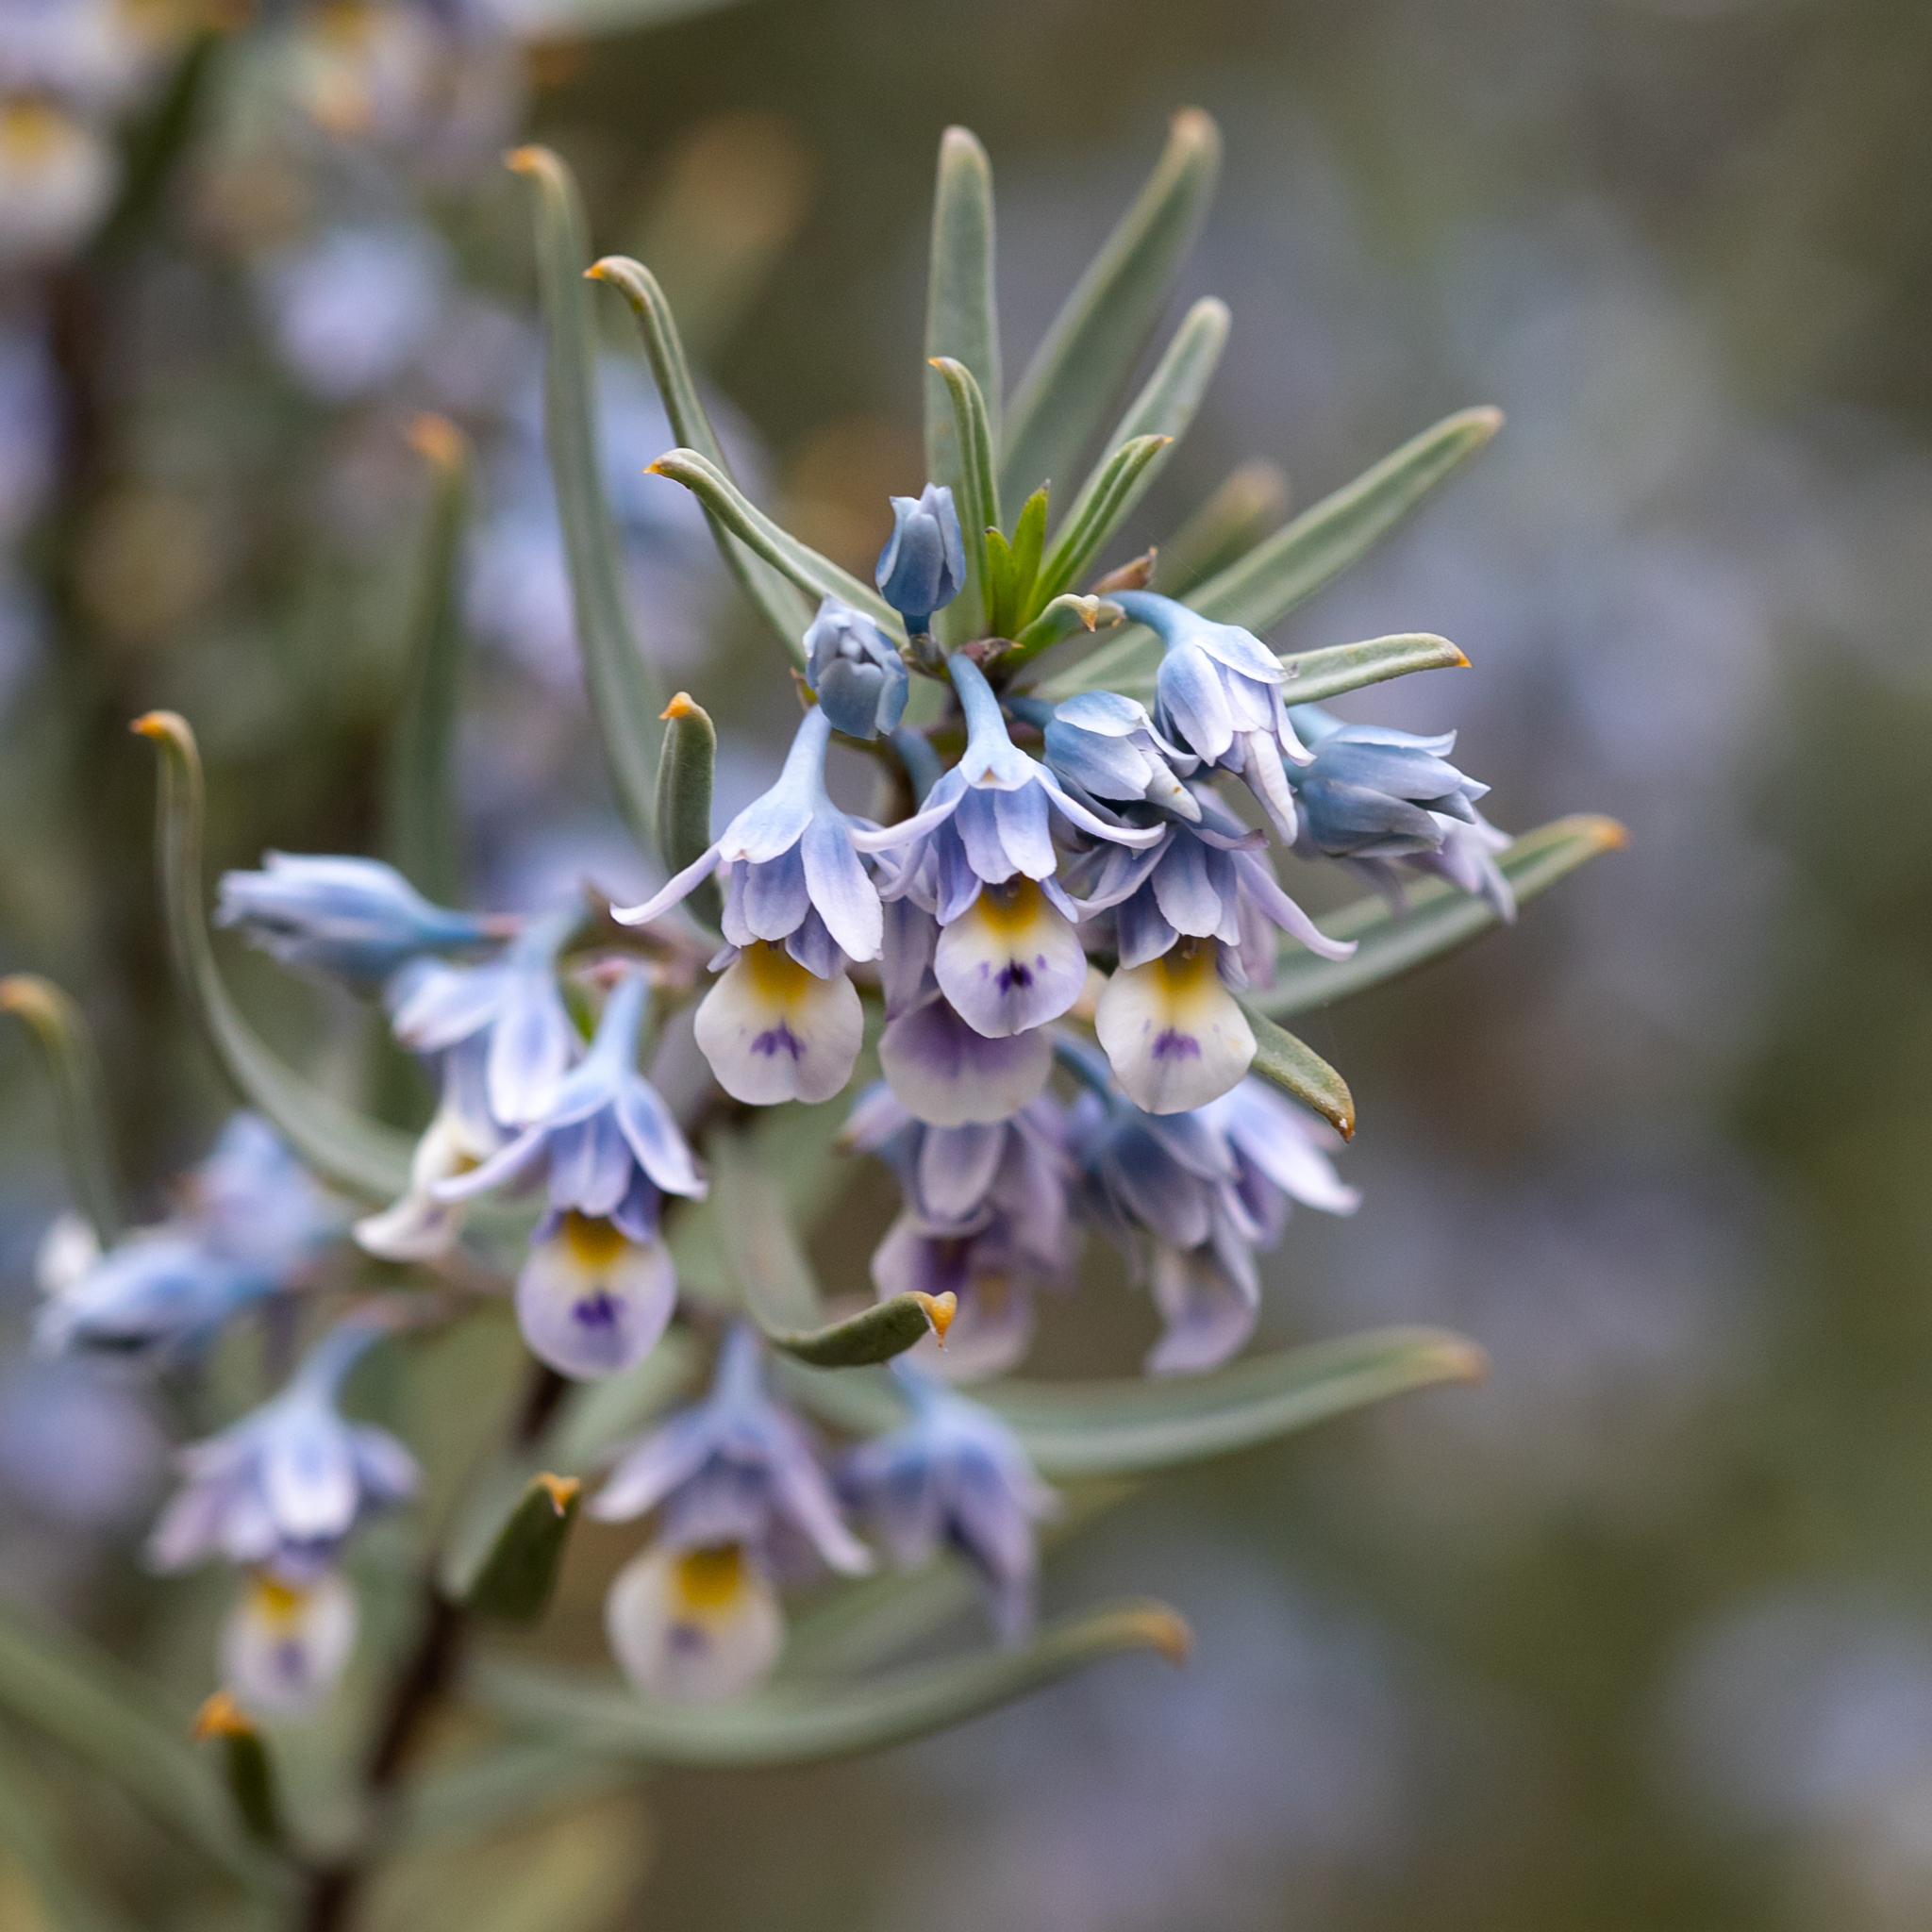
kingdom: Plantae
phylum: Tracheophyta
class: Magnoliopsida
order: Malpighiales
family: Violaceae
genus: Pigea
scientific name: Pigea floribunda
